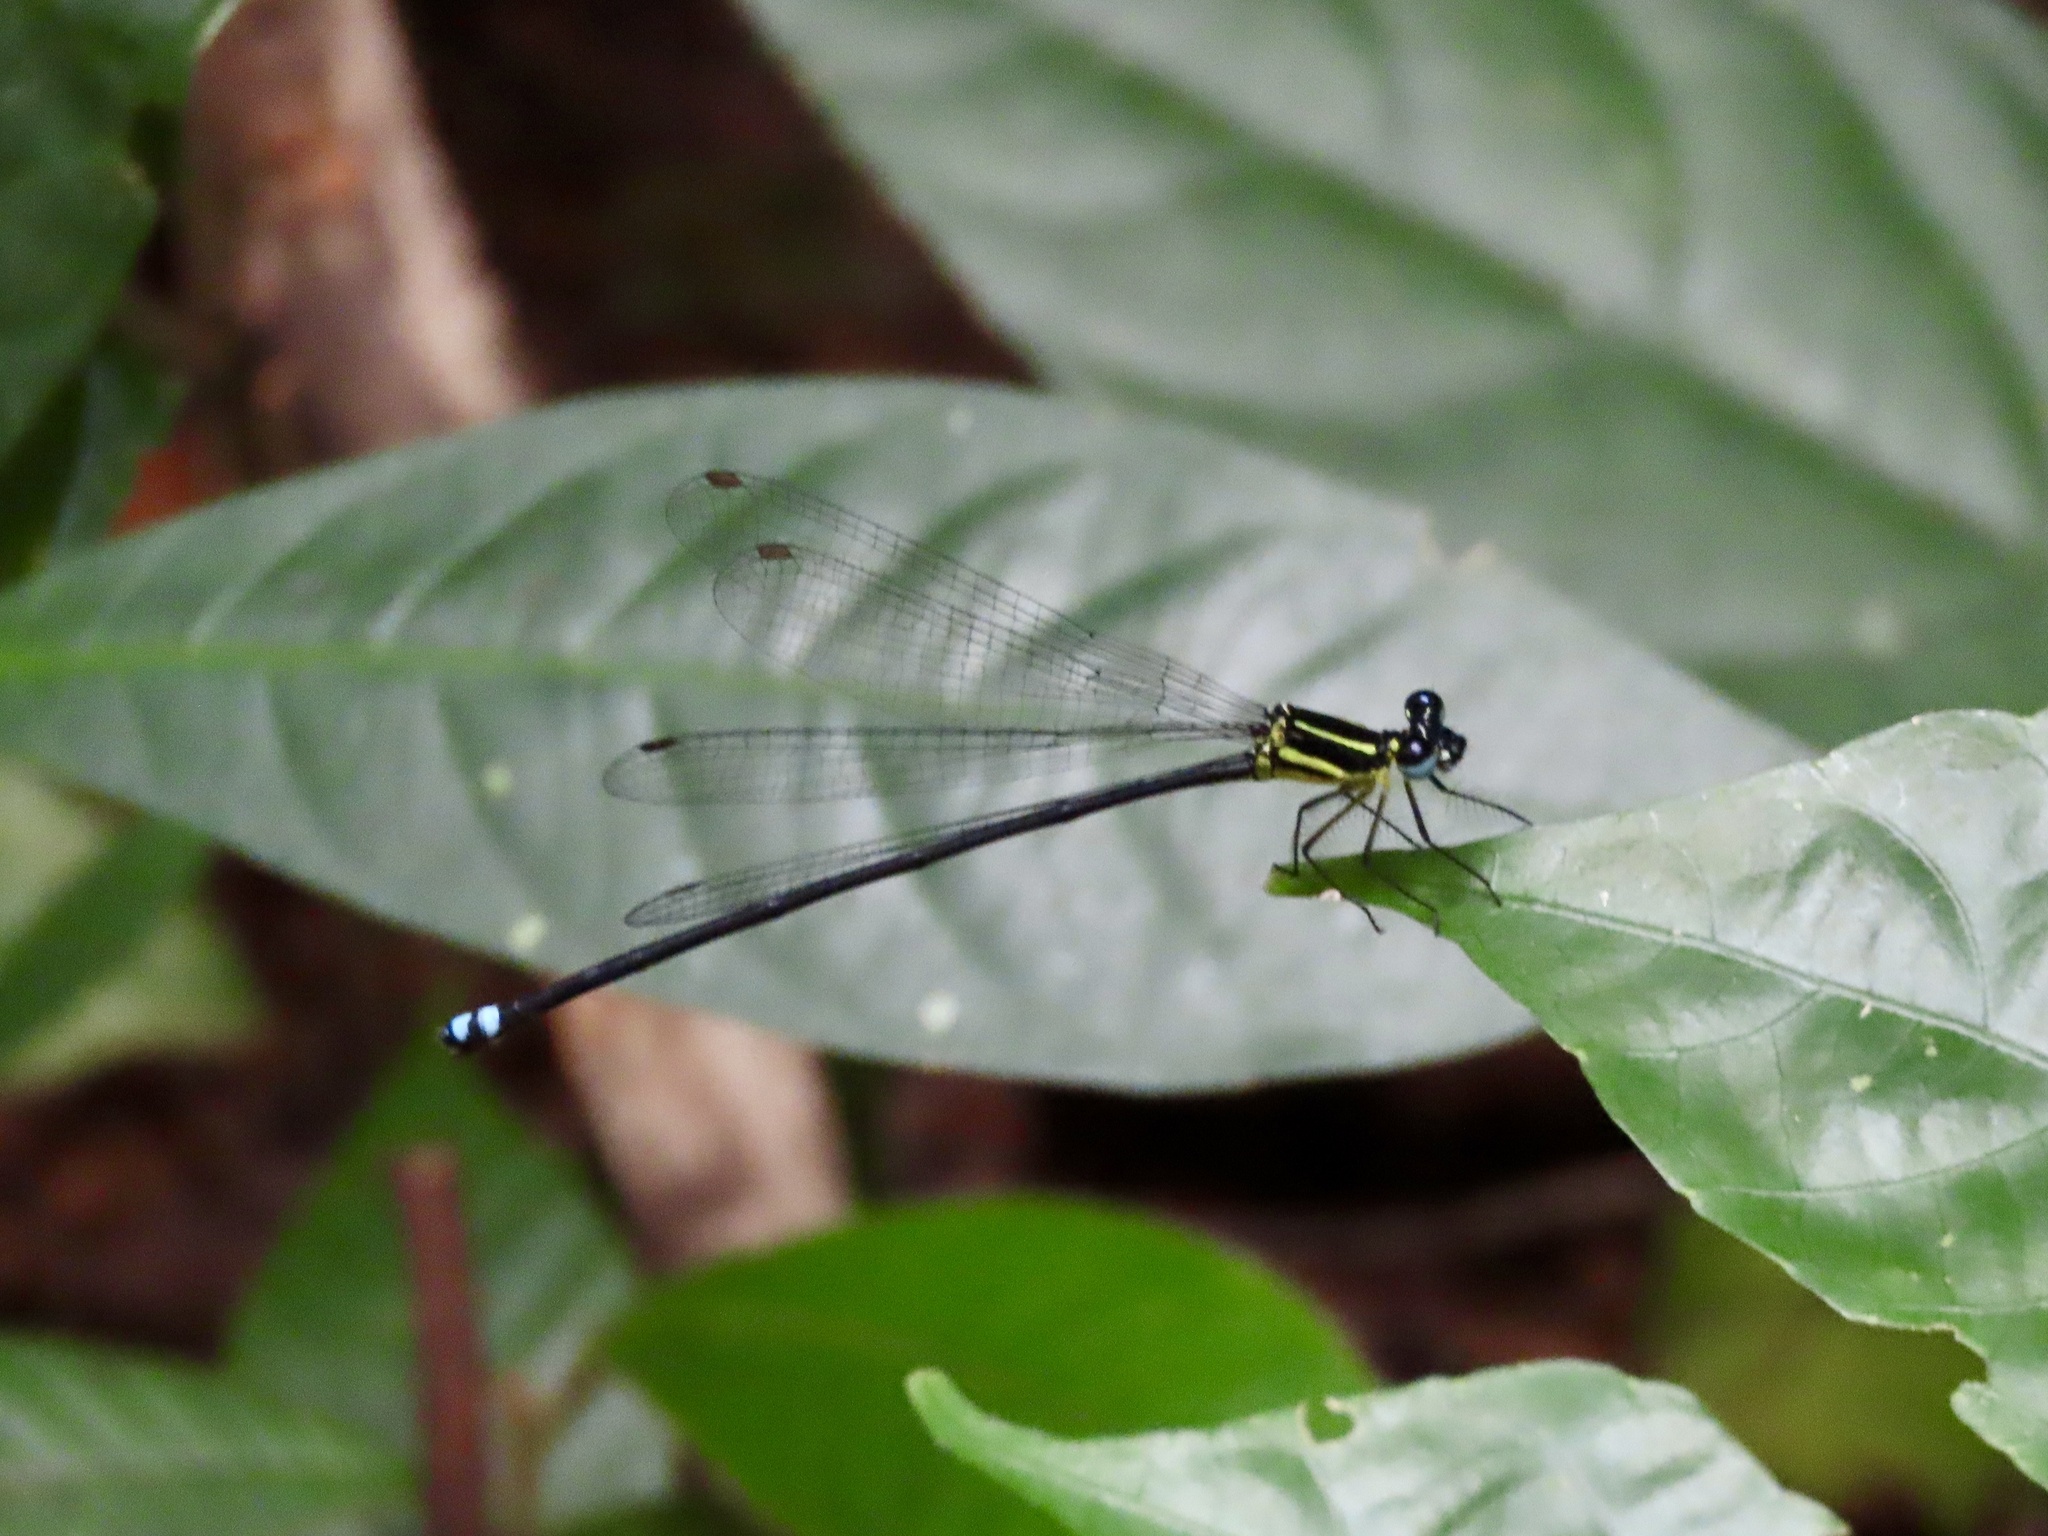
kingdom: Animalia
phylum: Arthropoda
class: Insecta
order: Odonata
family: Platycnemididae
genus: Indocnemis
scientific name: Indocnemis orang
